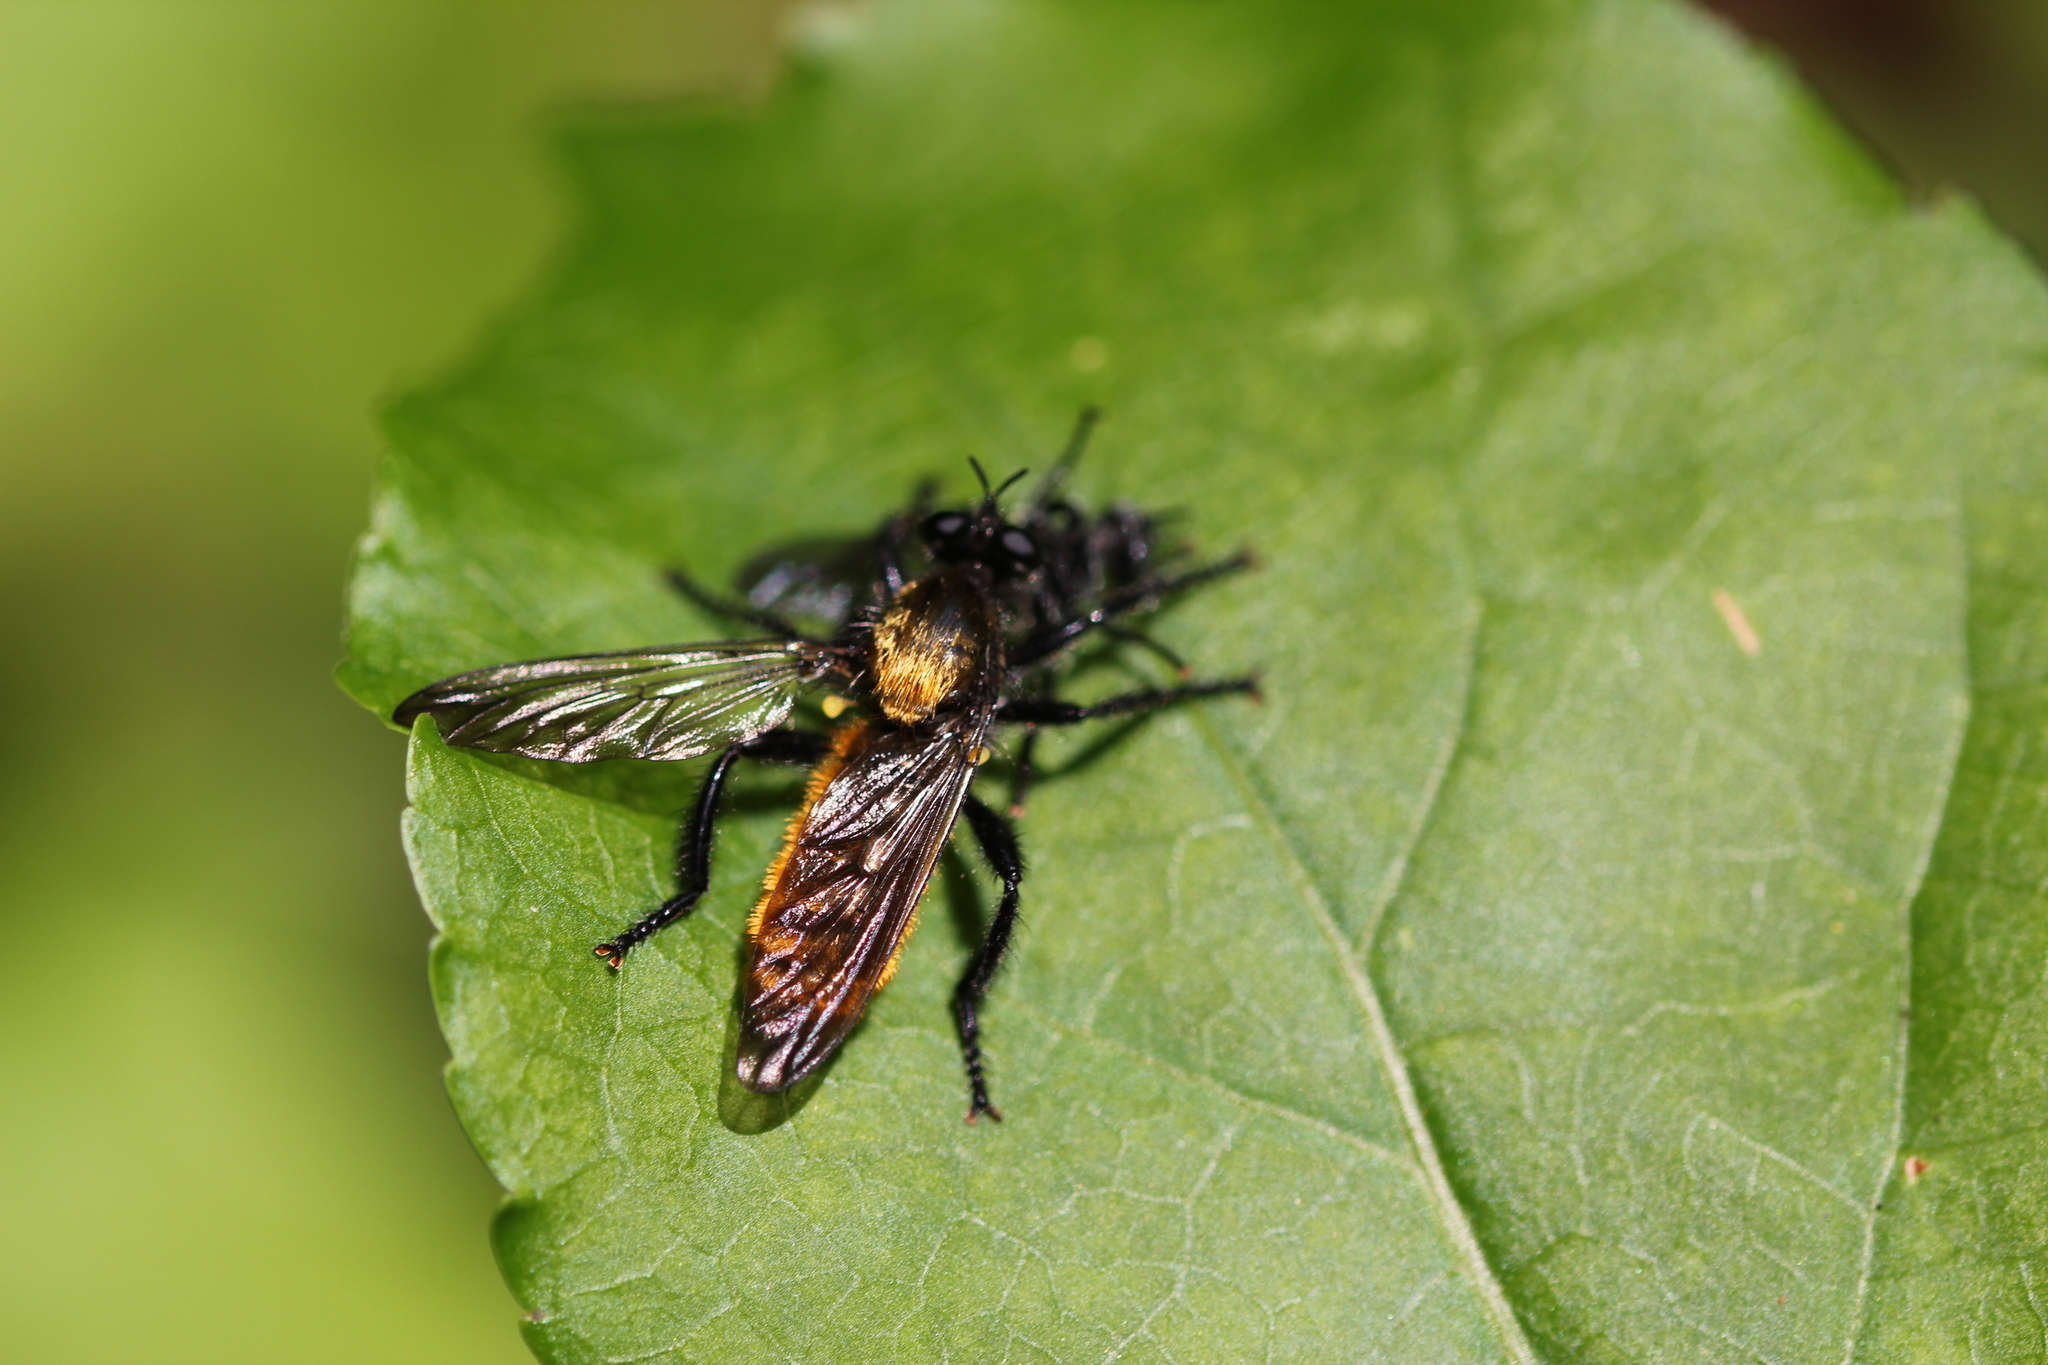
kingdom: Animalia
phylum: Arthropoda
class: Insecta
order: Diptera
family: Asilidae
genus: Laphria
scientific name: Laphria
